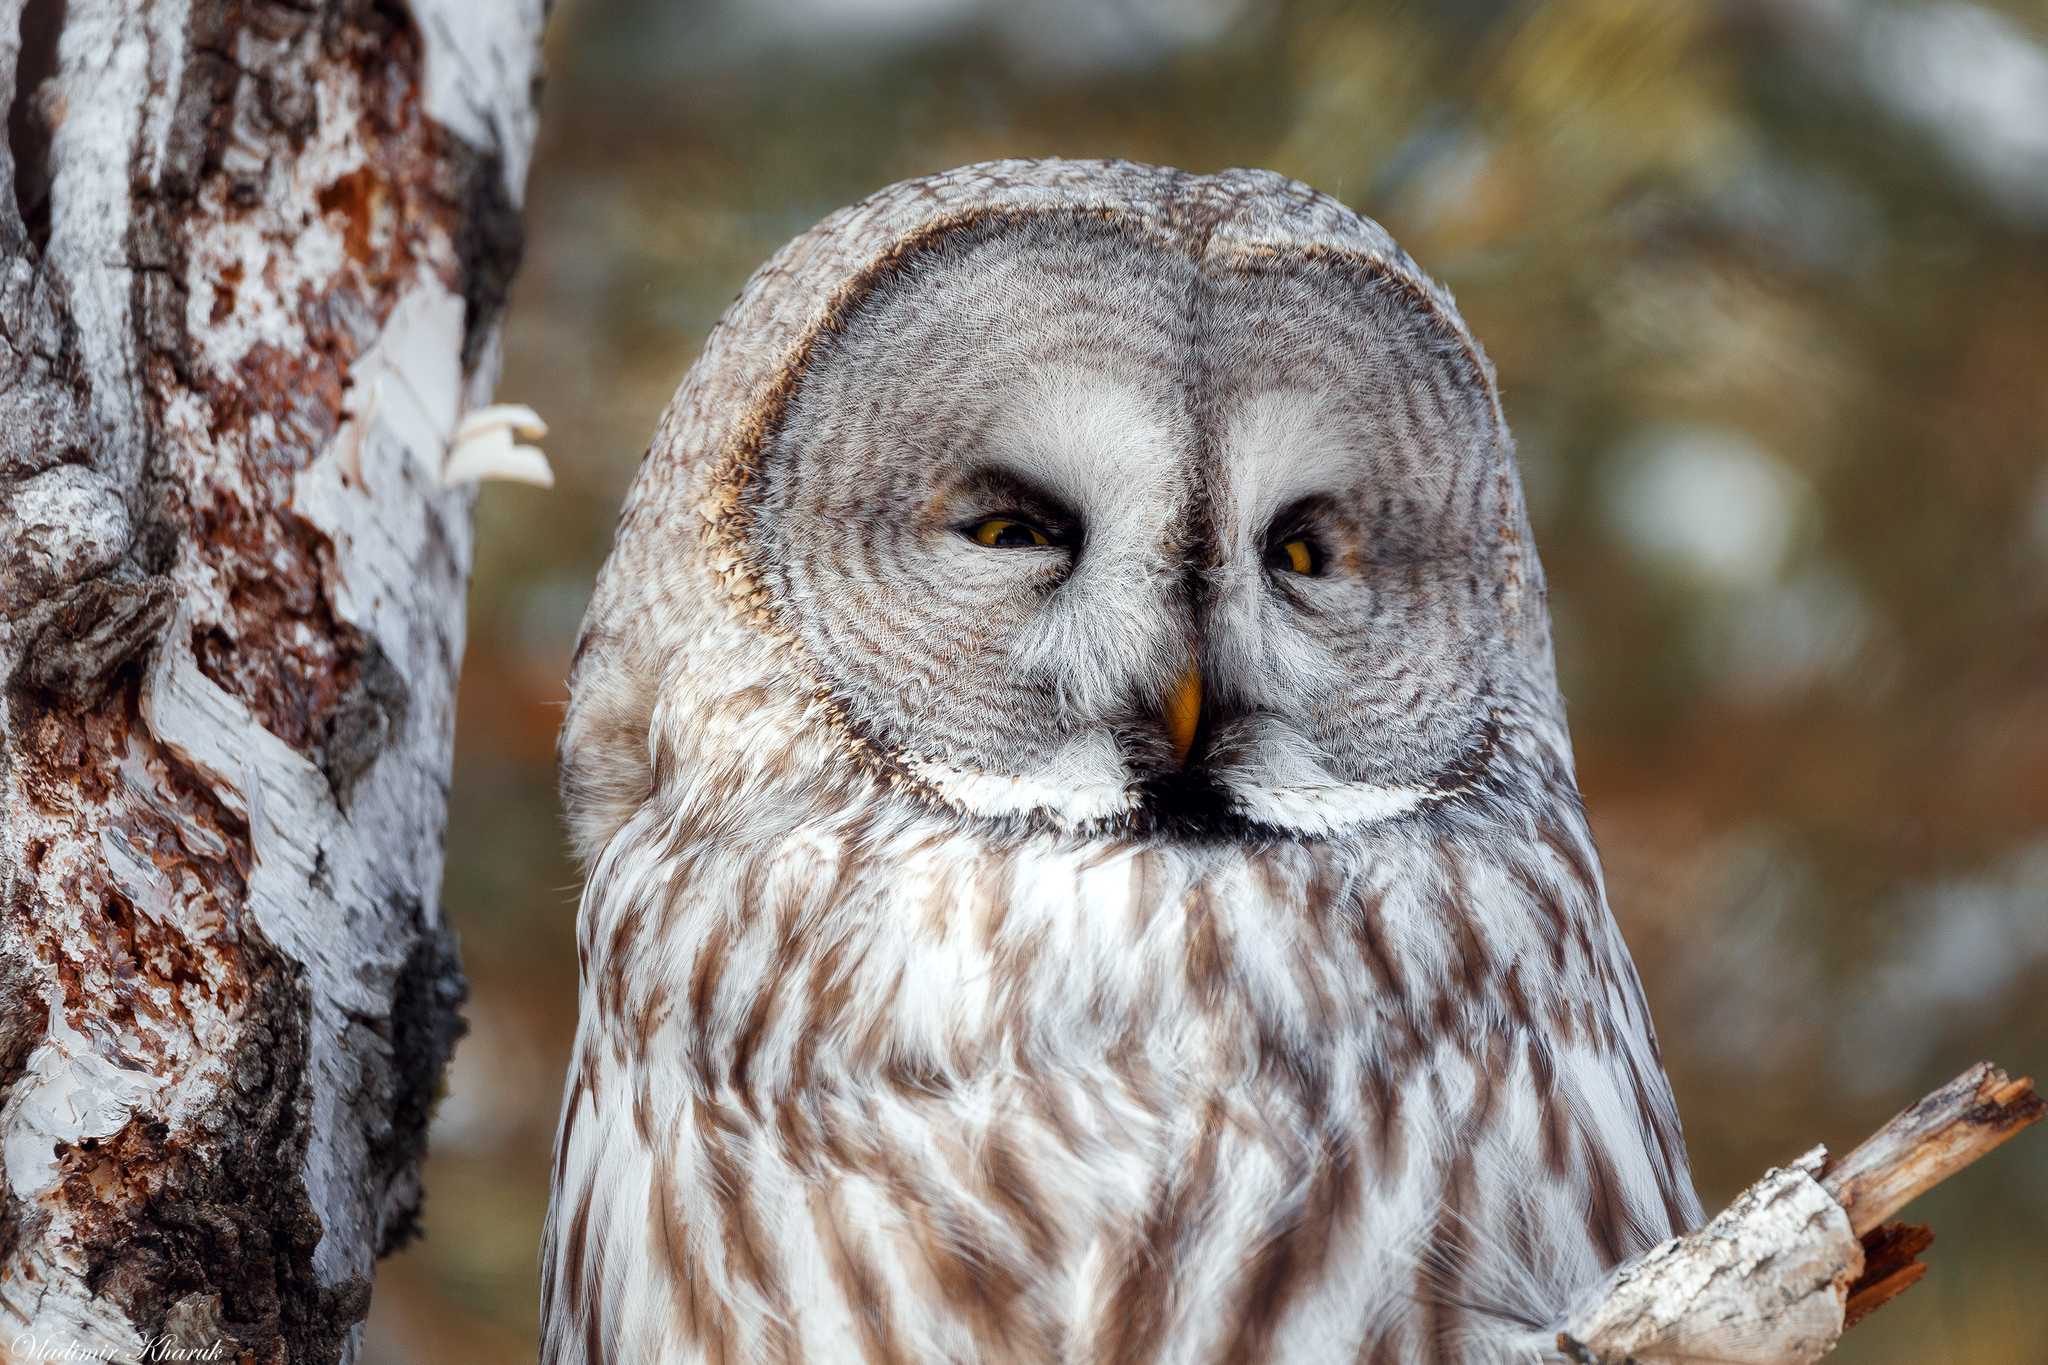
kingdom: Animalia
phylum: Chordata
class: Aves
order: Strigiformes
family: Strigidae
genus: Strix
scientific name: Strix nebulosa
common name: Great grey owl
